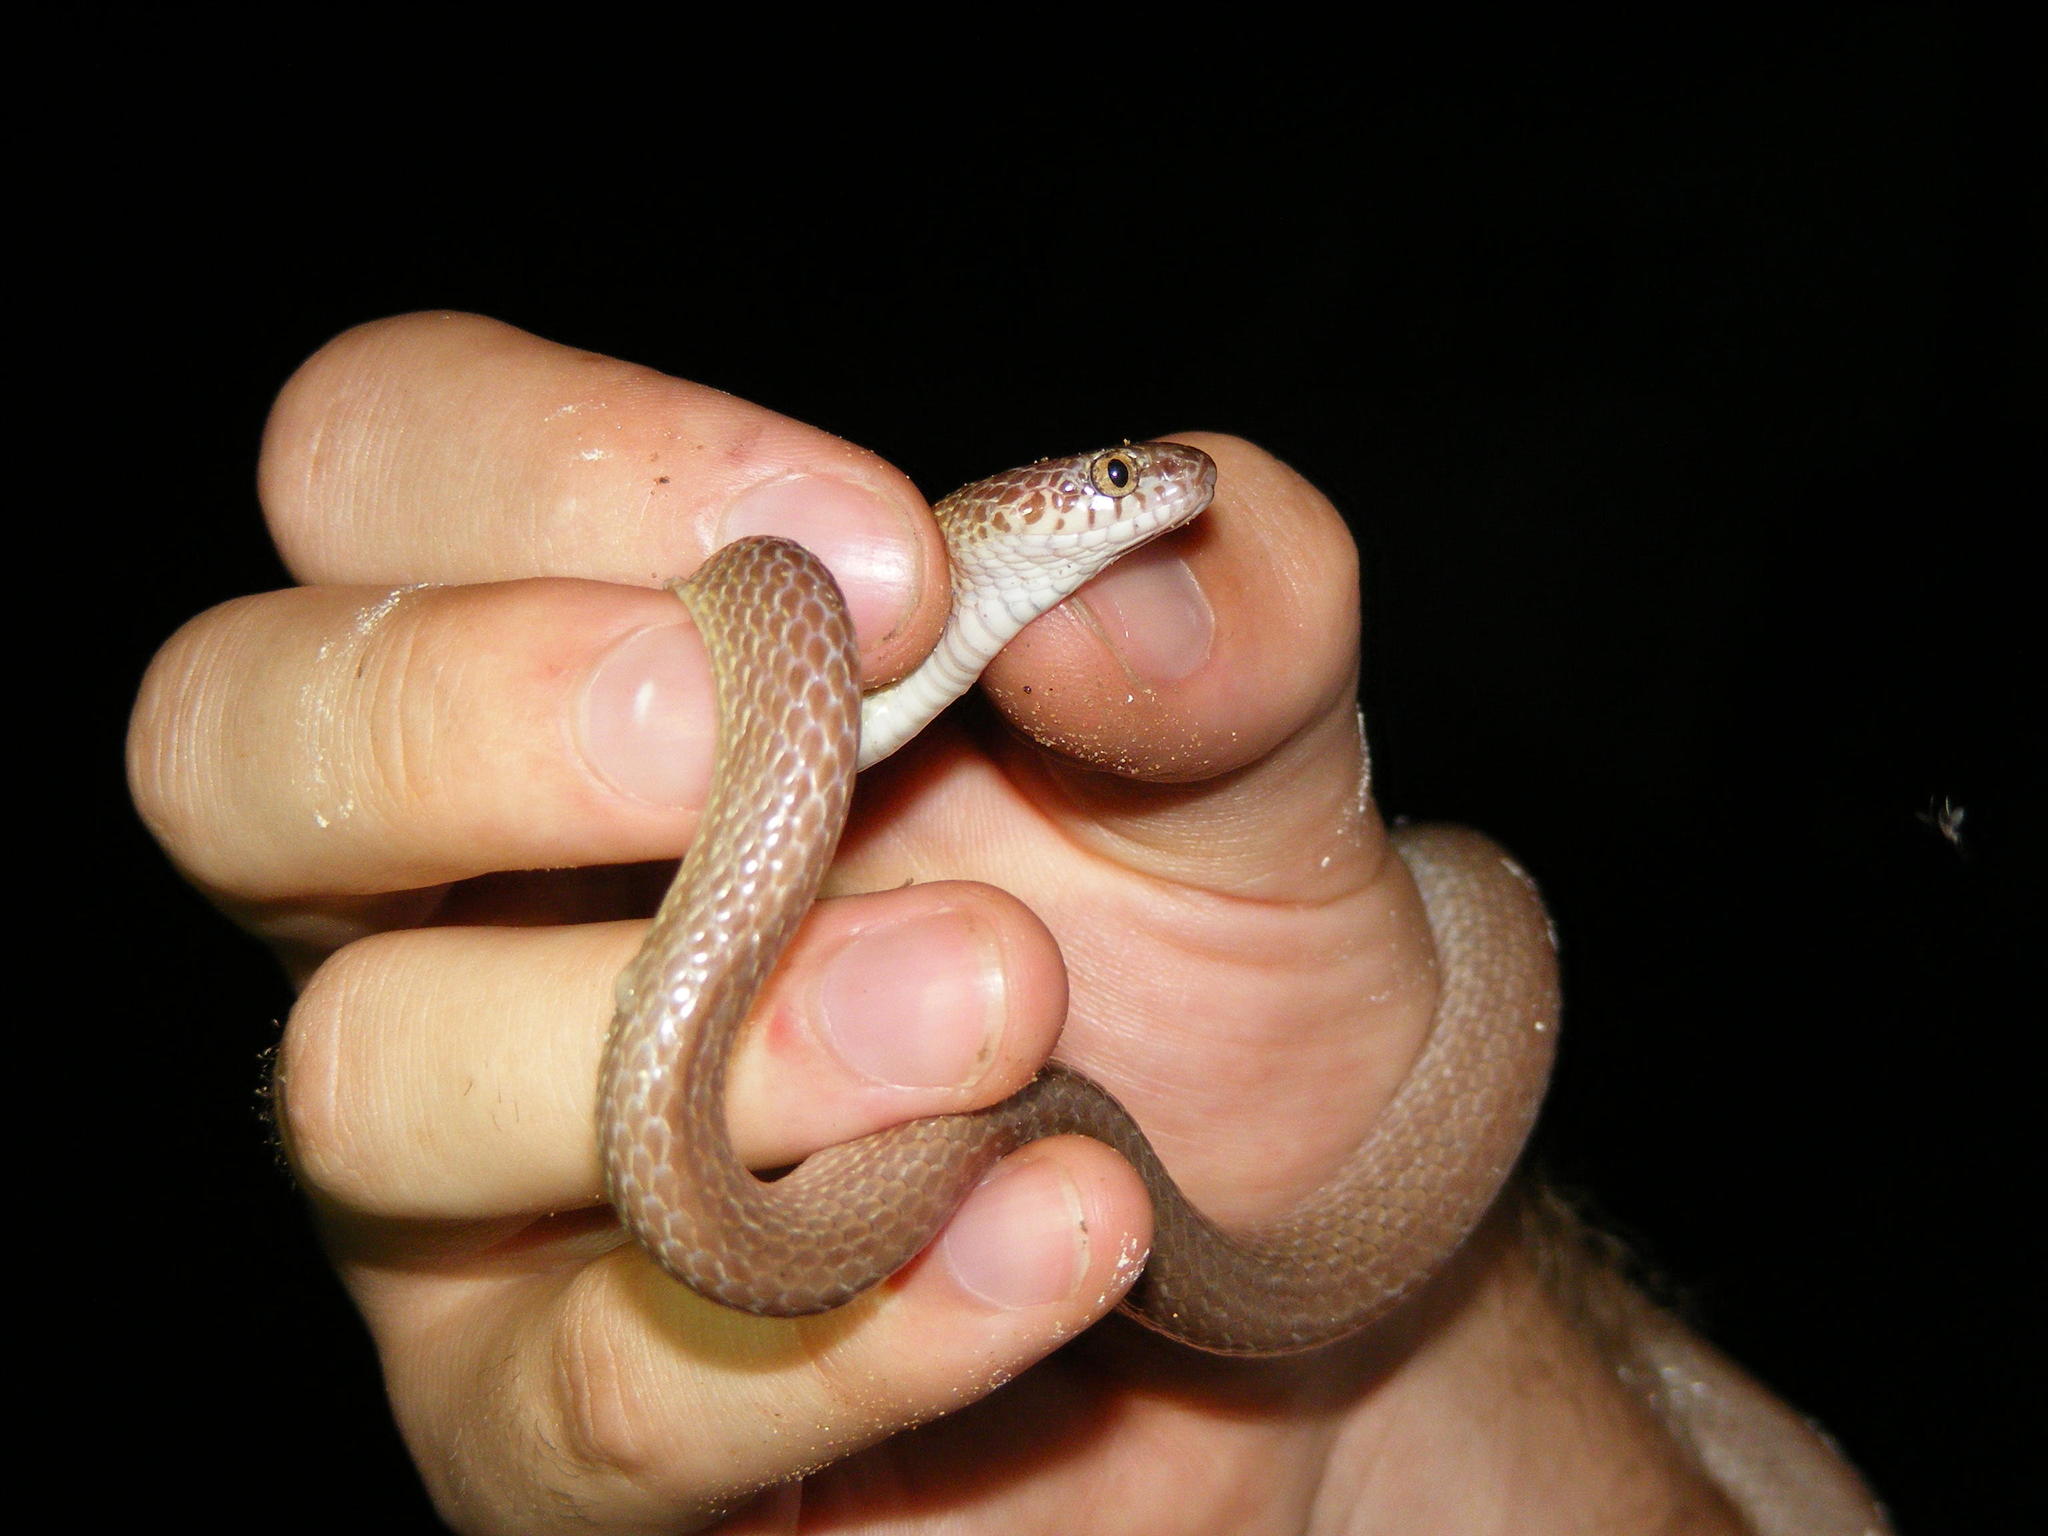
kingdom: Animalia
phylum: Chordata
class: Squamata
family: Colubridae
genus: Dipsadoboa
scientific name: Dipsadoboa aulica
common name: Cross-barred snake
